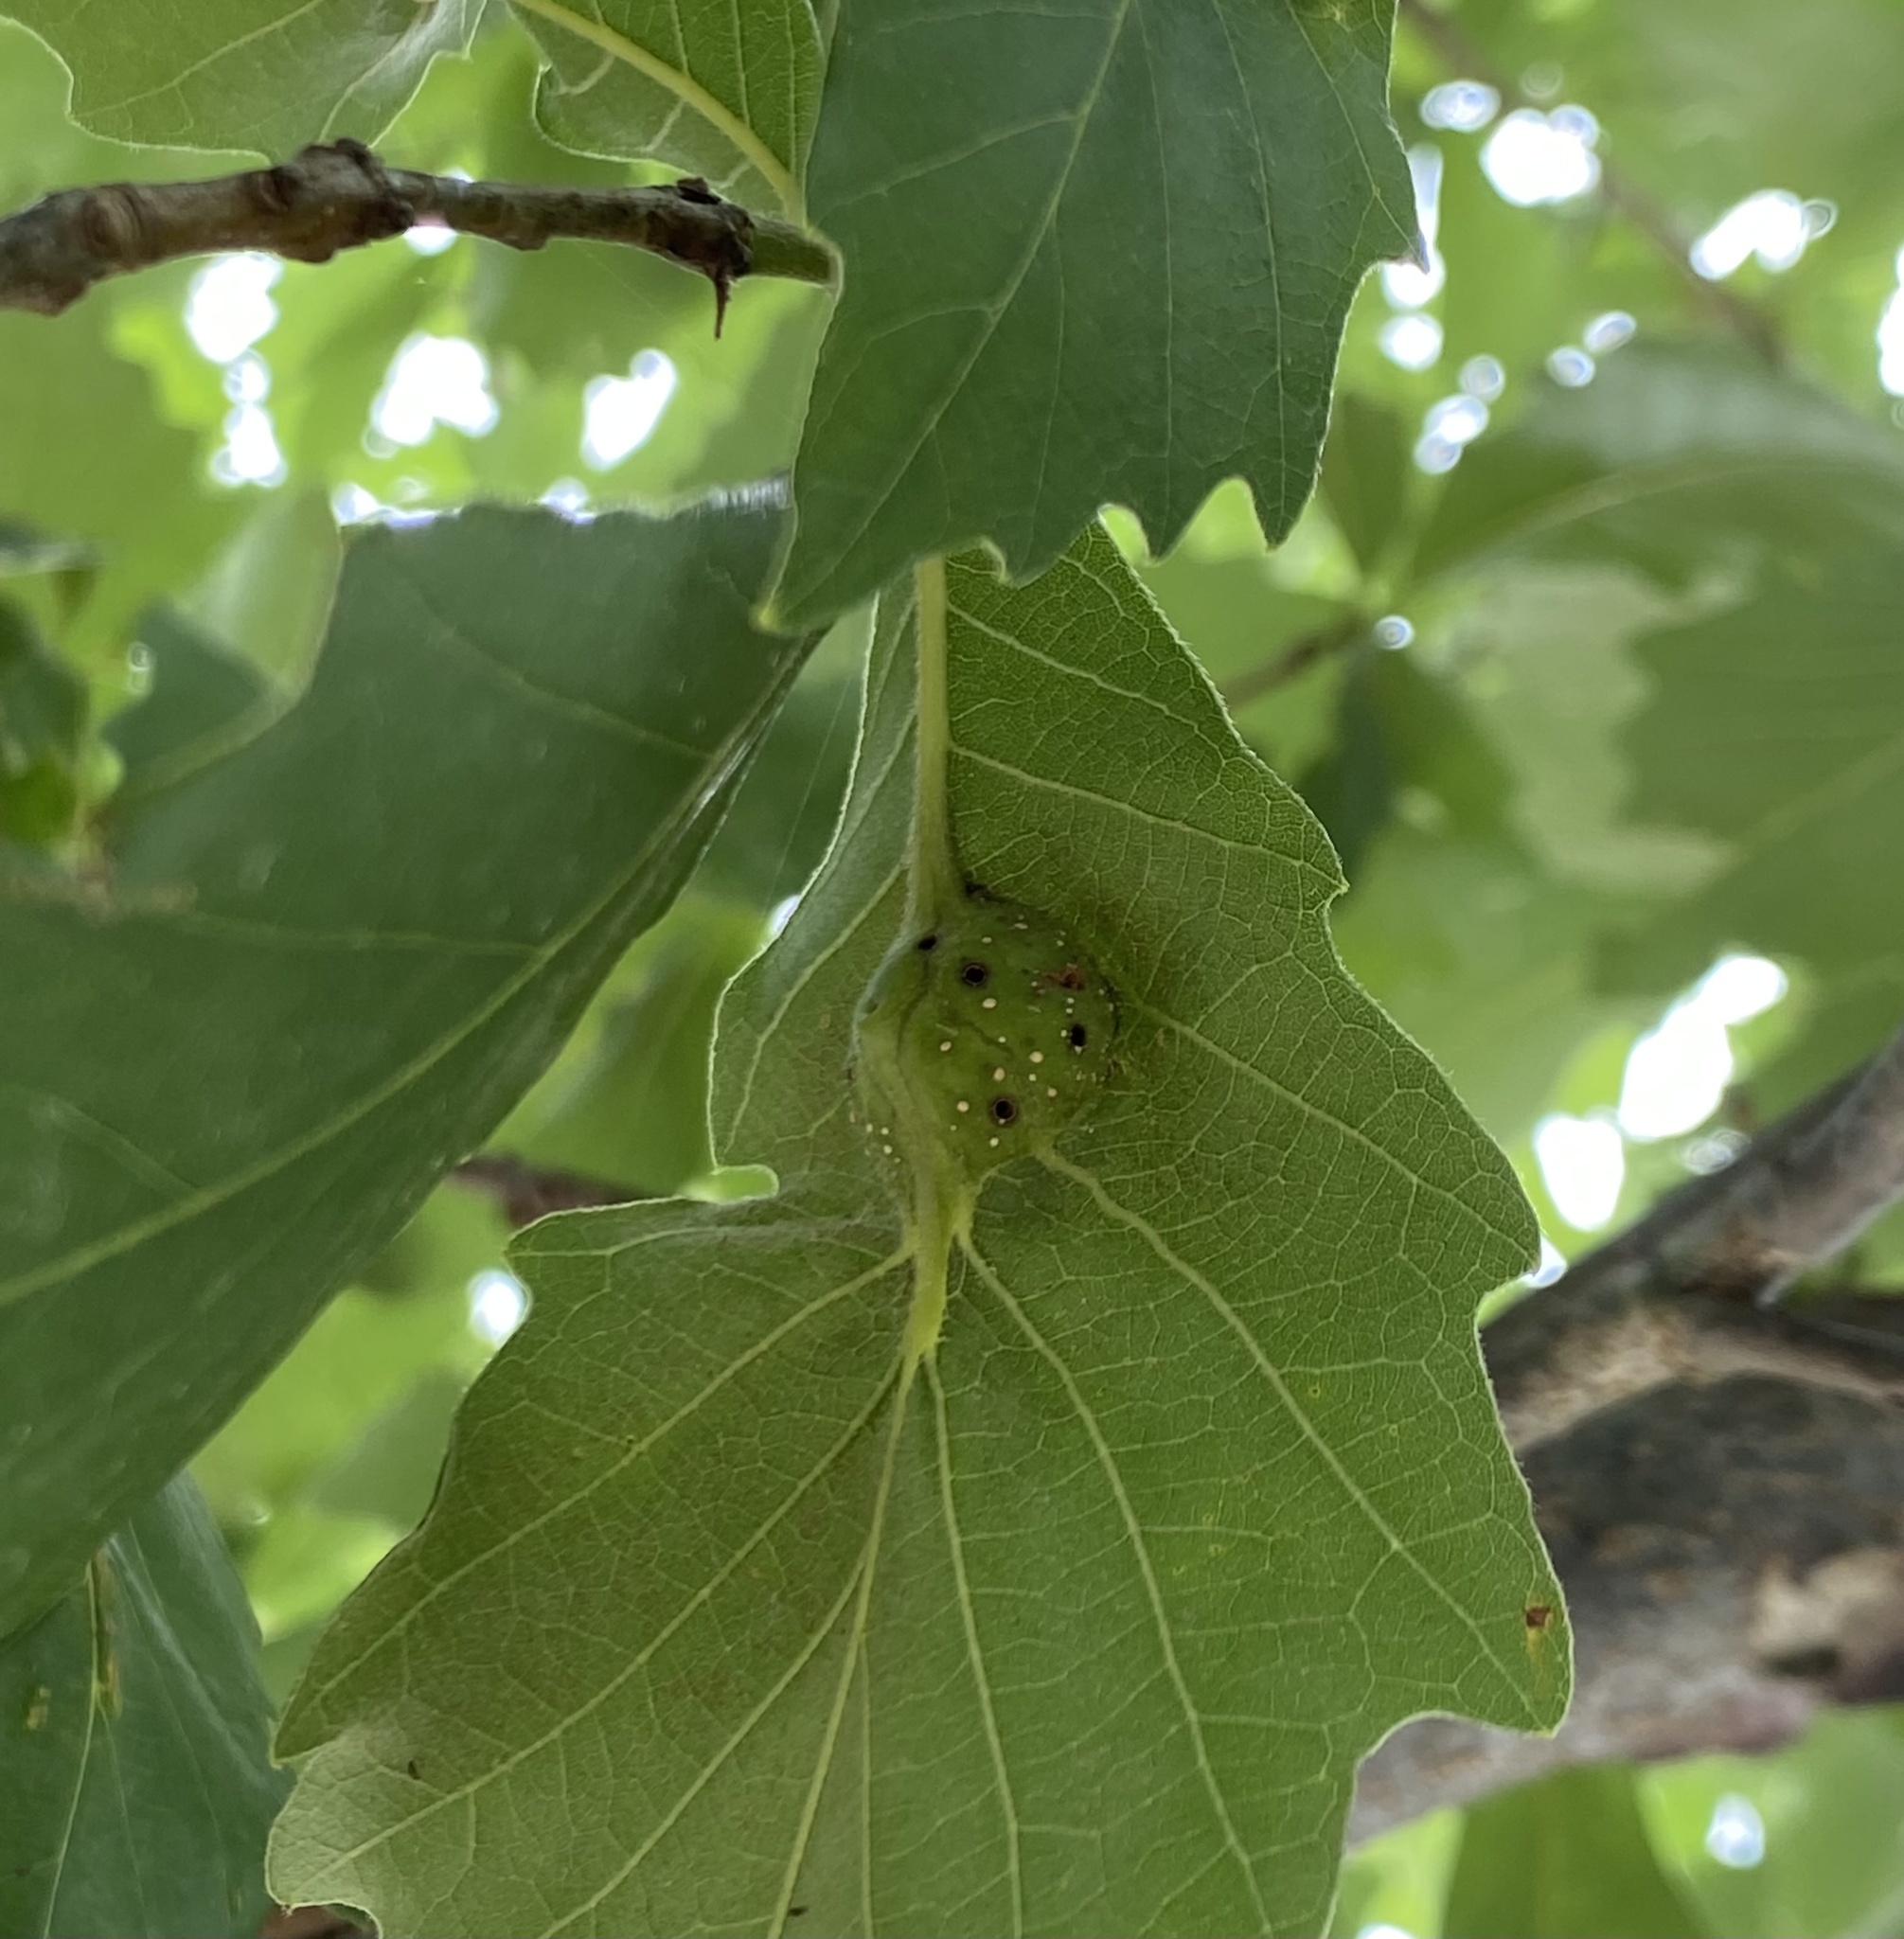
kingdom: Animalia
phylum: Arthropoda
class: Insecta
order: Hymenoptera
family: Cynipidae
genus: Andricus
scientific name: Andricus
